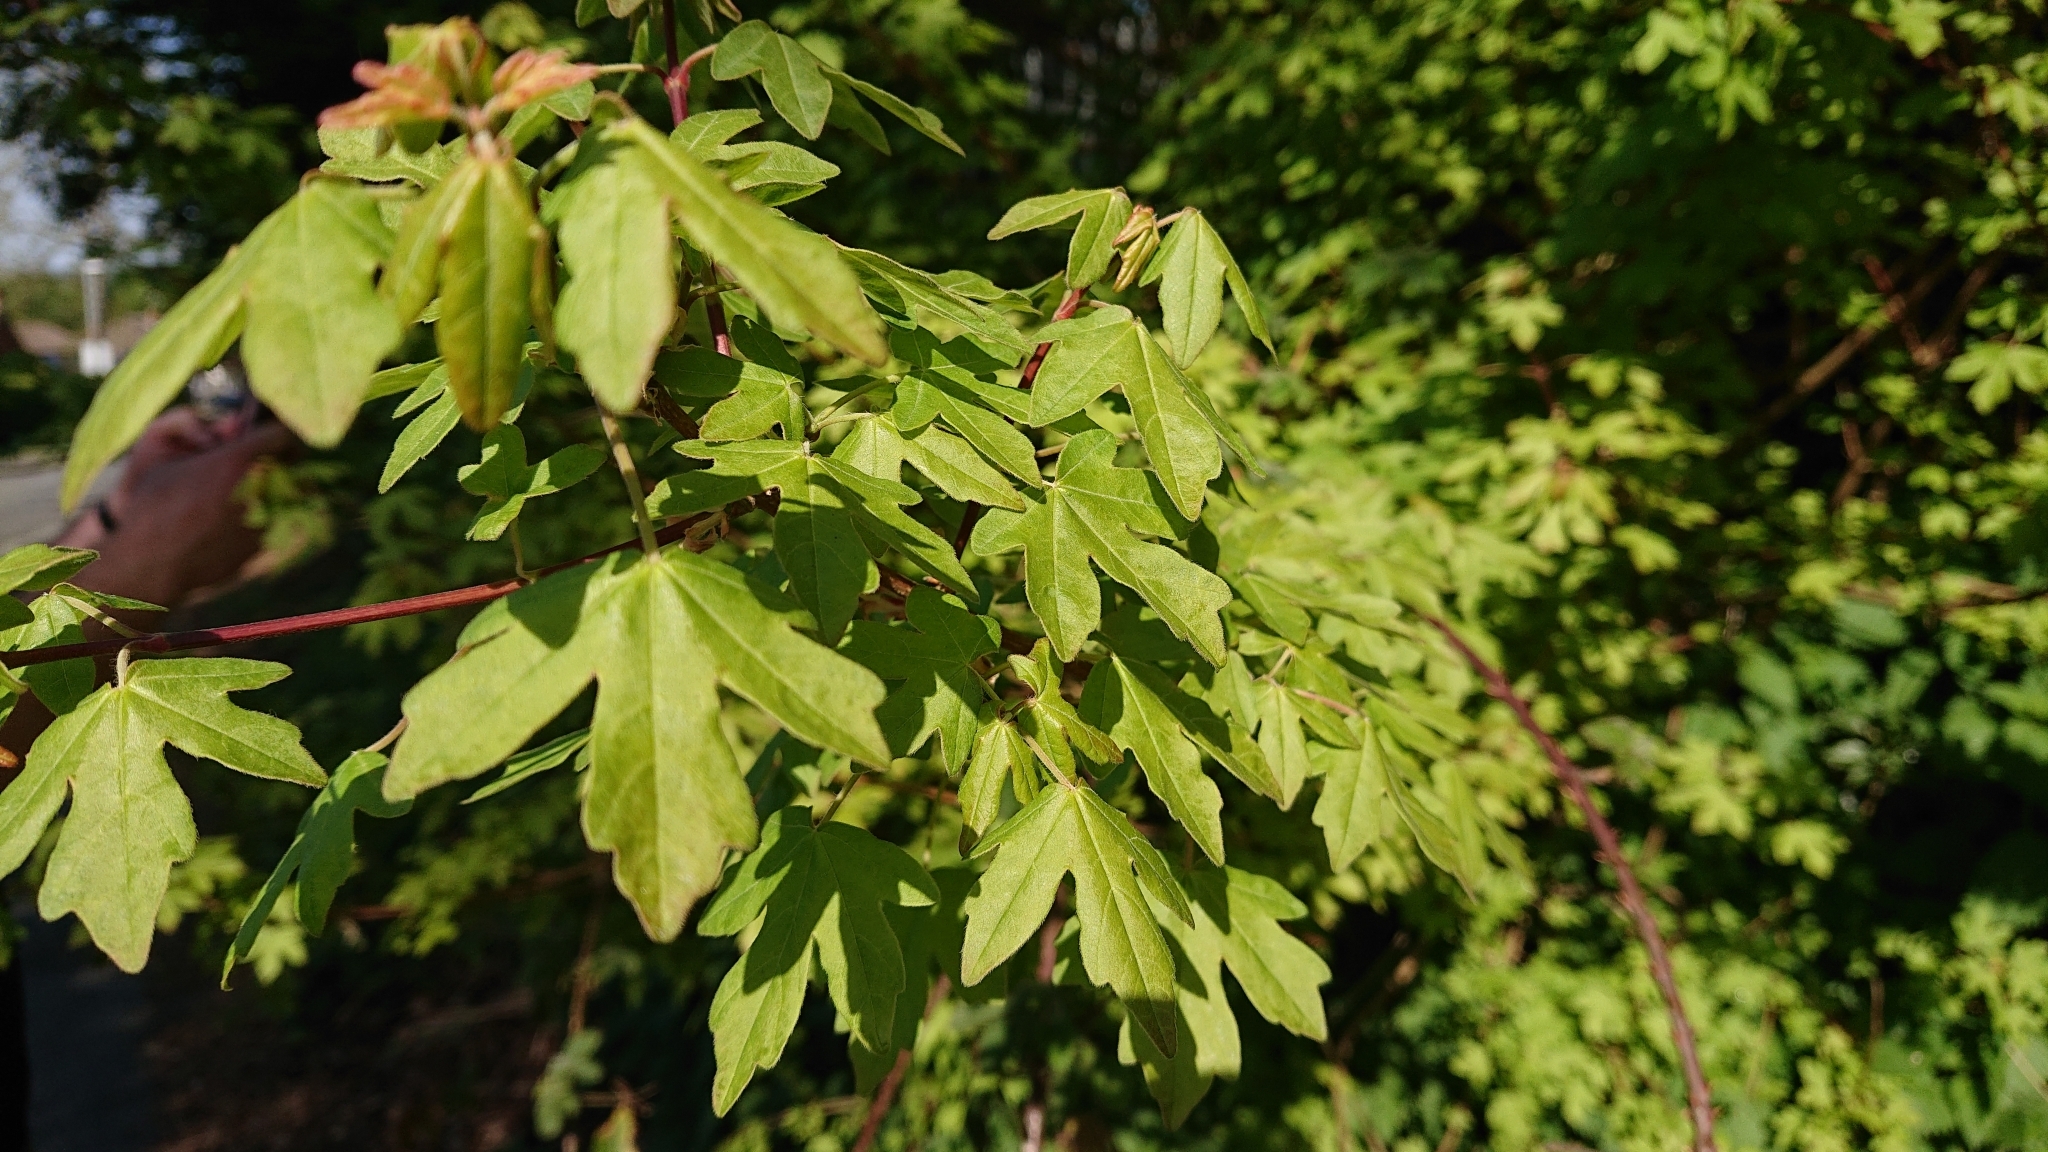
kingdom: Plantae
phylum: Tracheophyta
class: Magnoliopsida
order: Sapindales
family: Sapindaceae
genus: Acer
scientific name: Acer campestre
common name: Field maple
